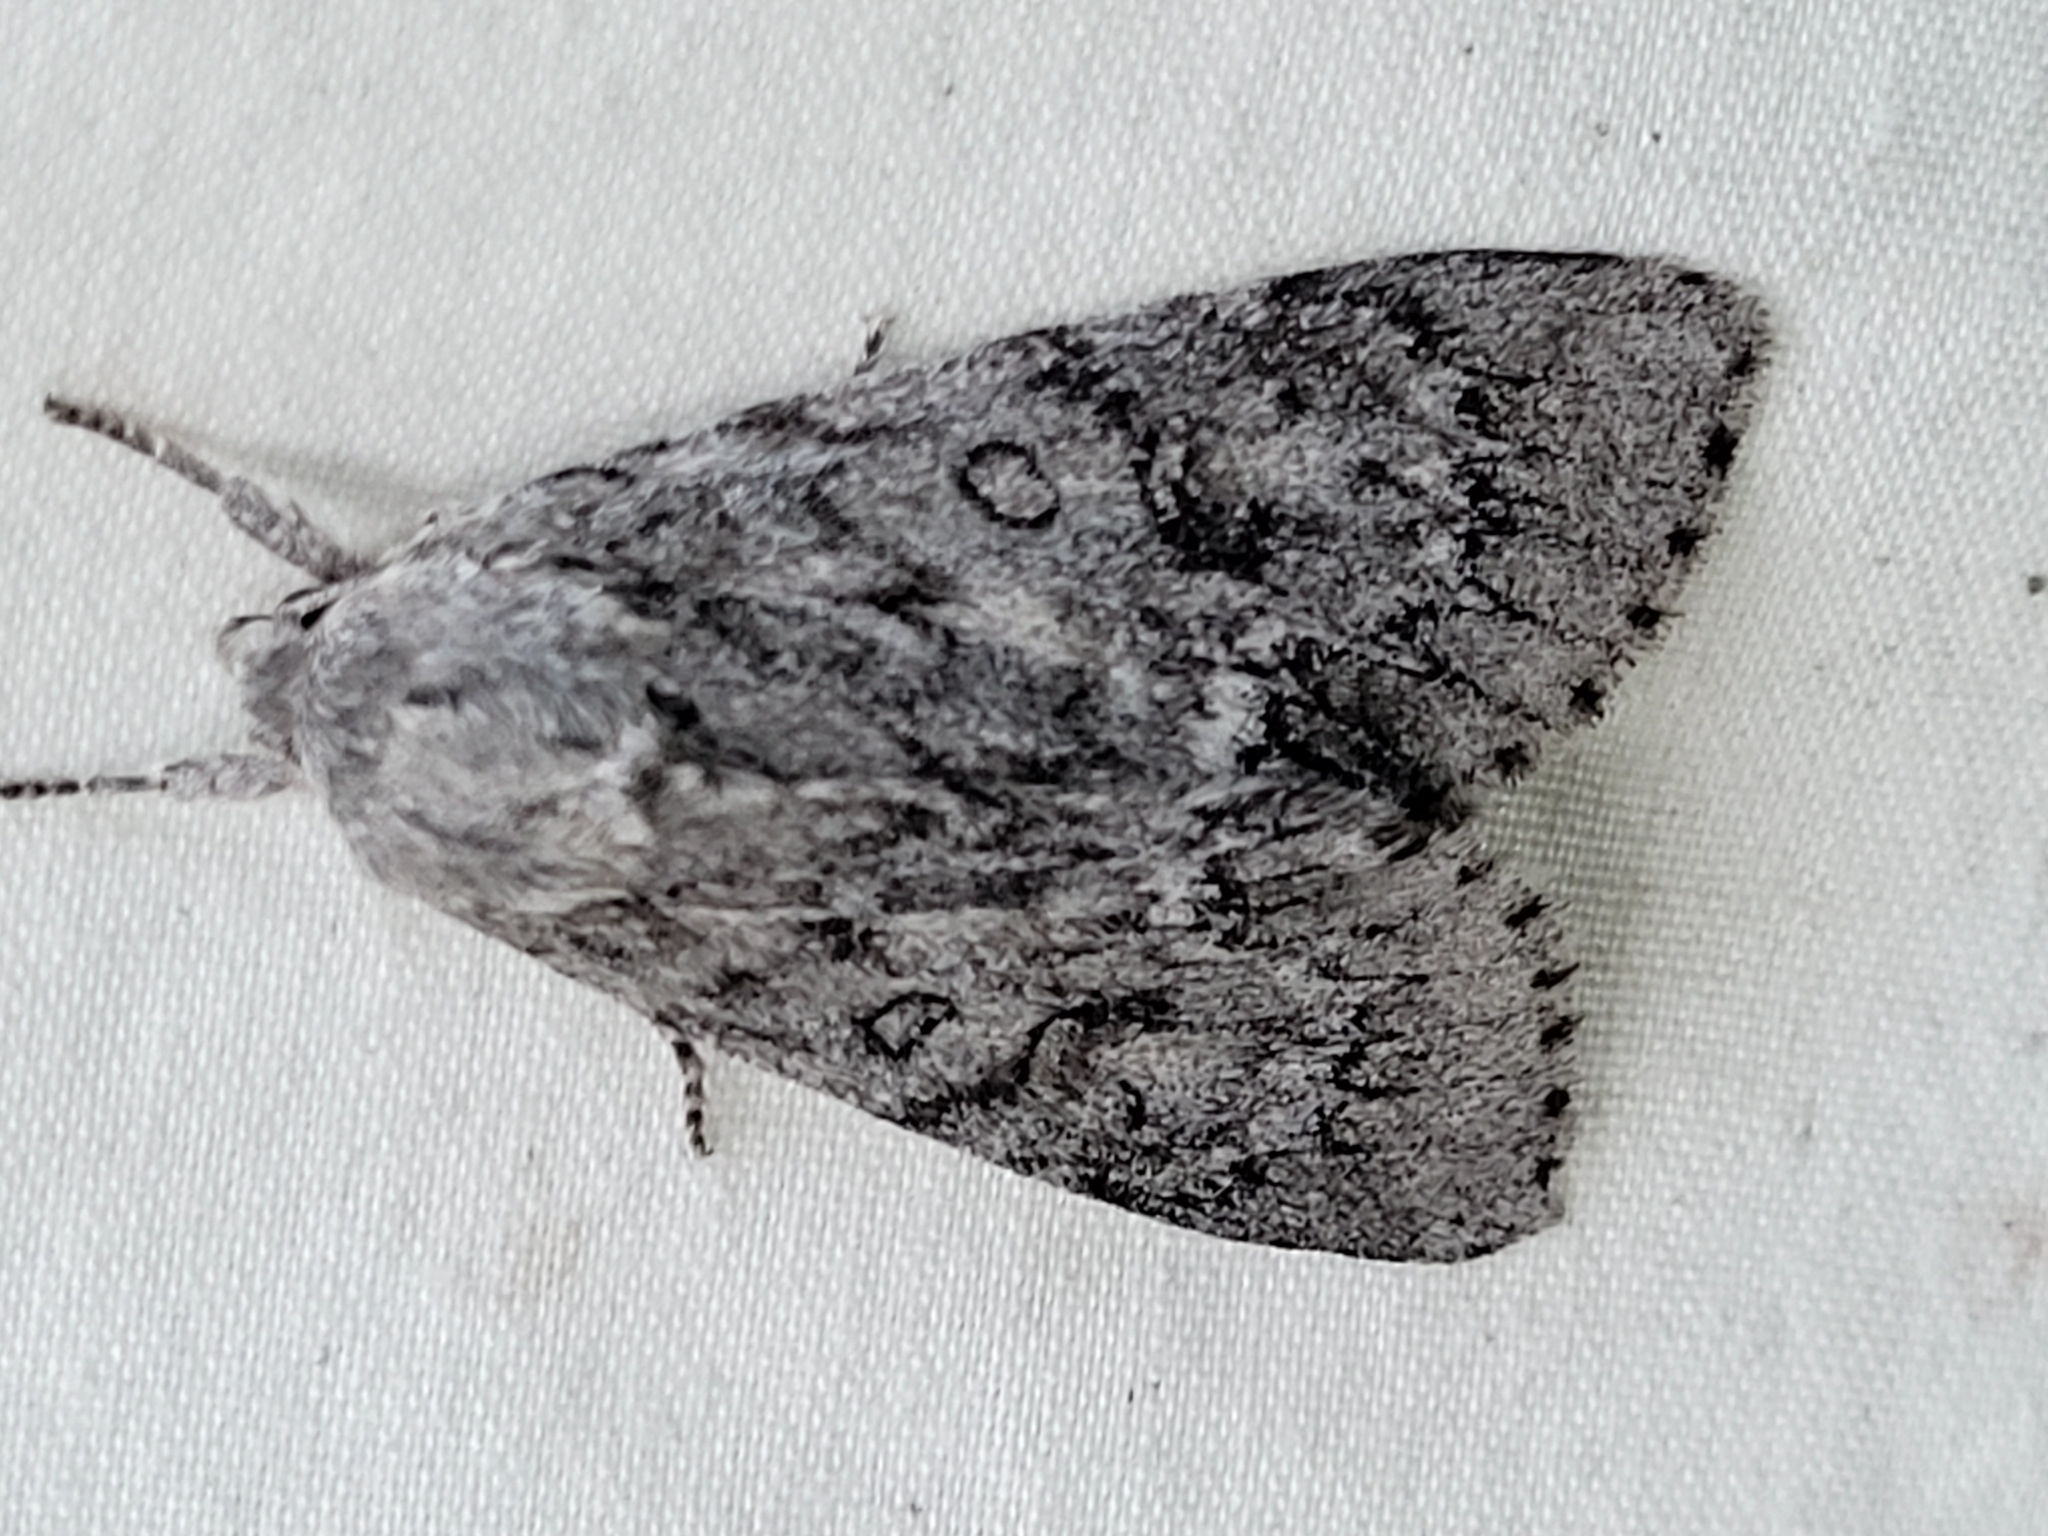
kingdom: Animalia
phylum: Arthropoda
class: Insecta
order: Lepidoptera
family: Noctuidae
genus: Acronicta
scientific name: Acronicta americana
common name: American dagger
